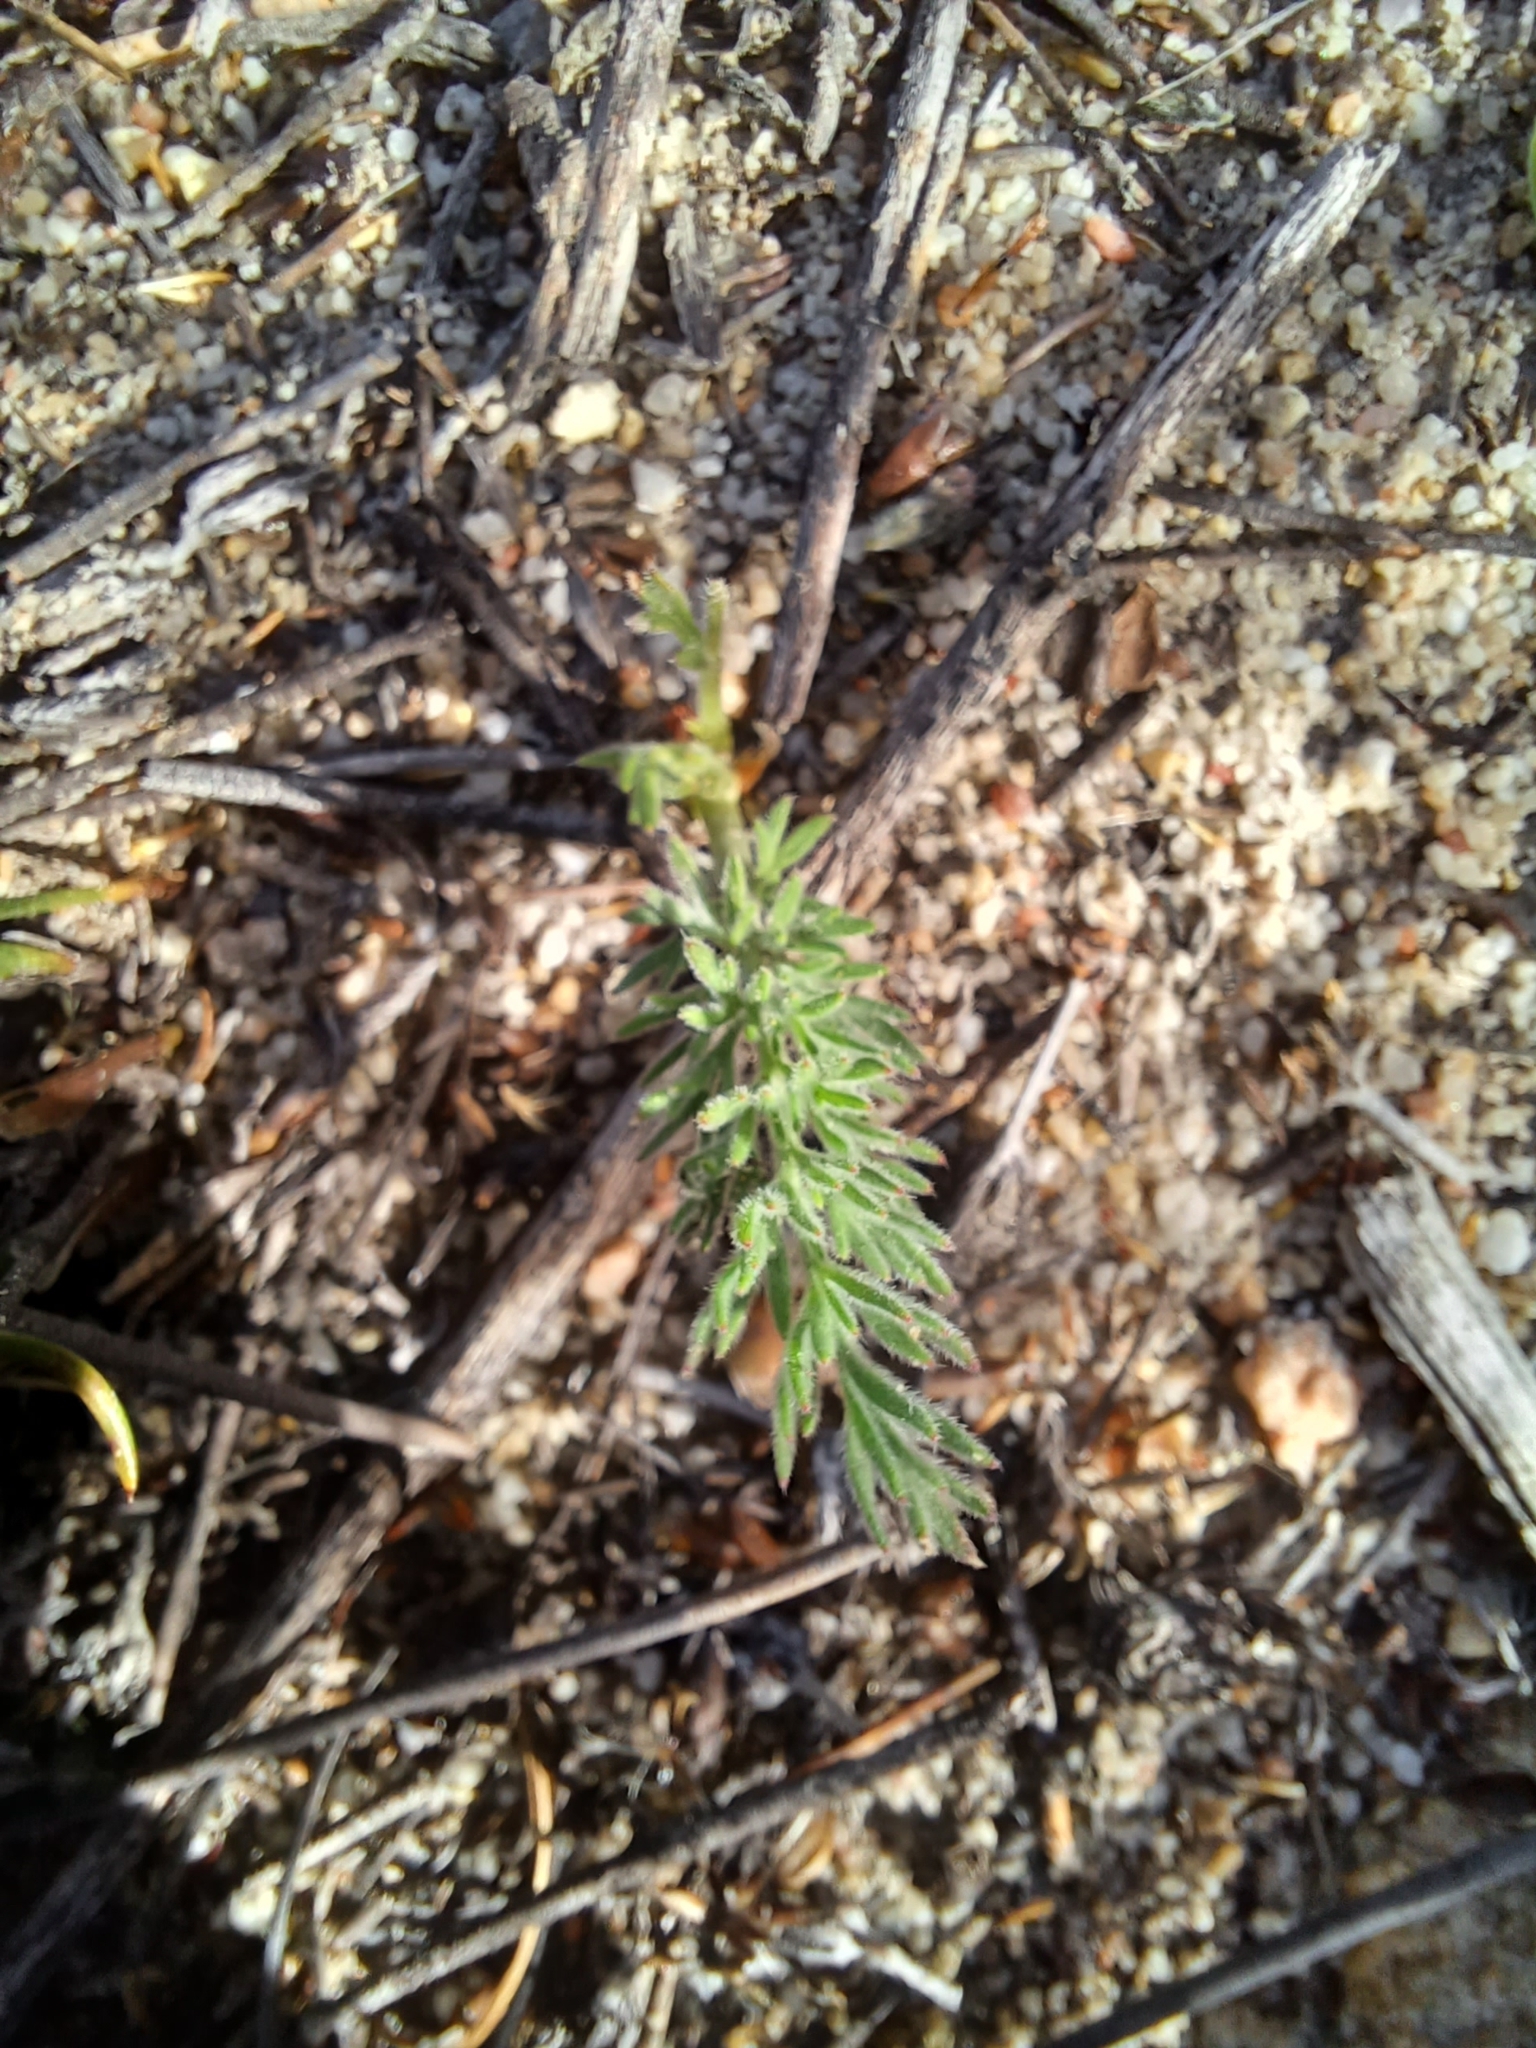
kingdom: Plantae
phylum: Tracheophyta
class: Magnoliopsida
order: Geraniales
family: Geraniaceae
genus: Pelargonium
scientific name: Pelargonium rapaceum
